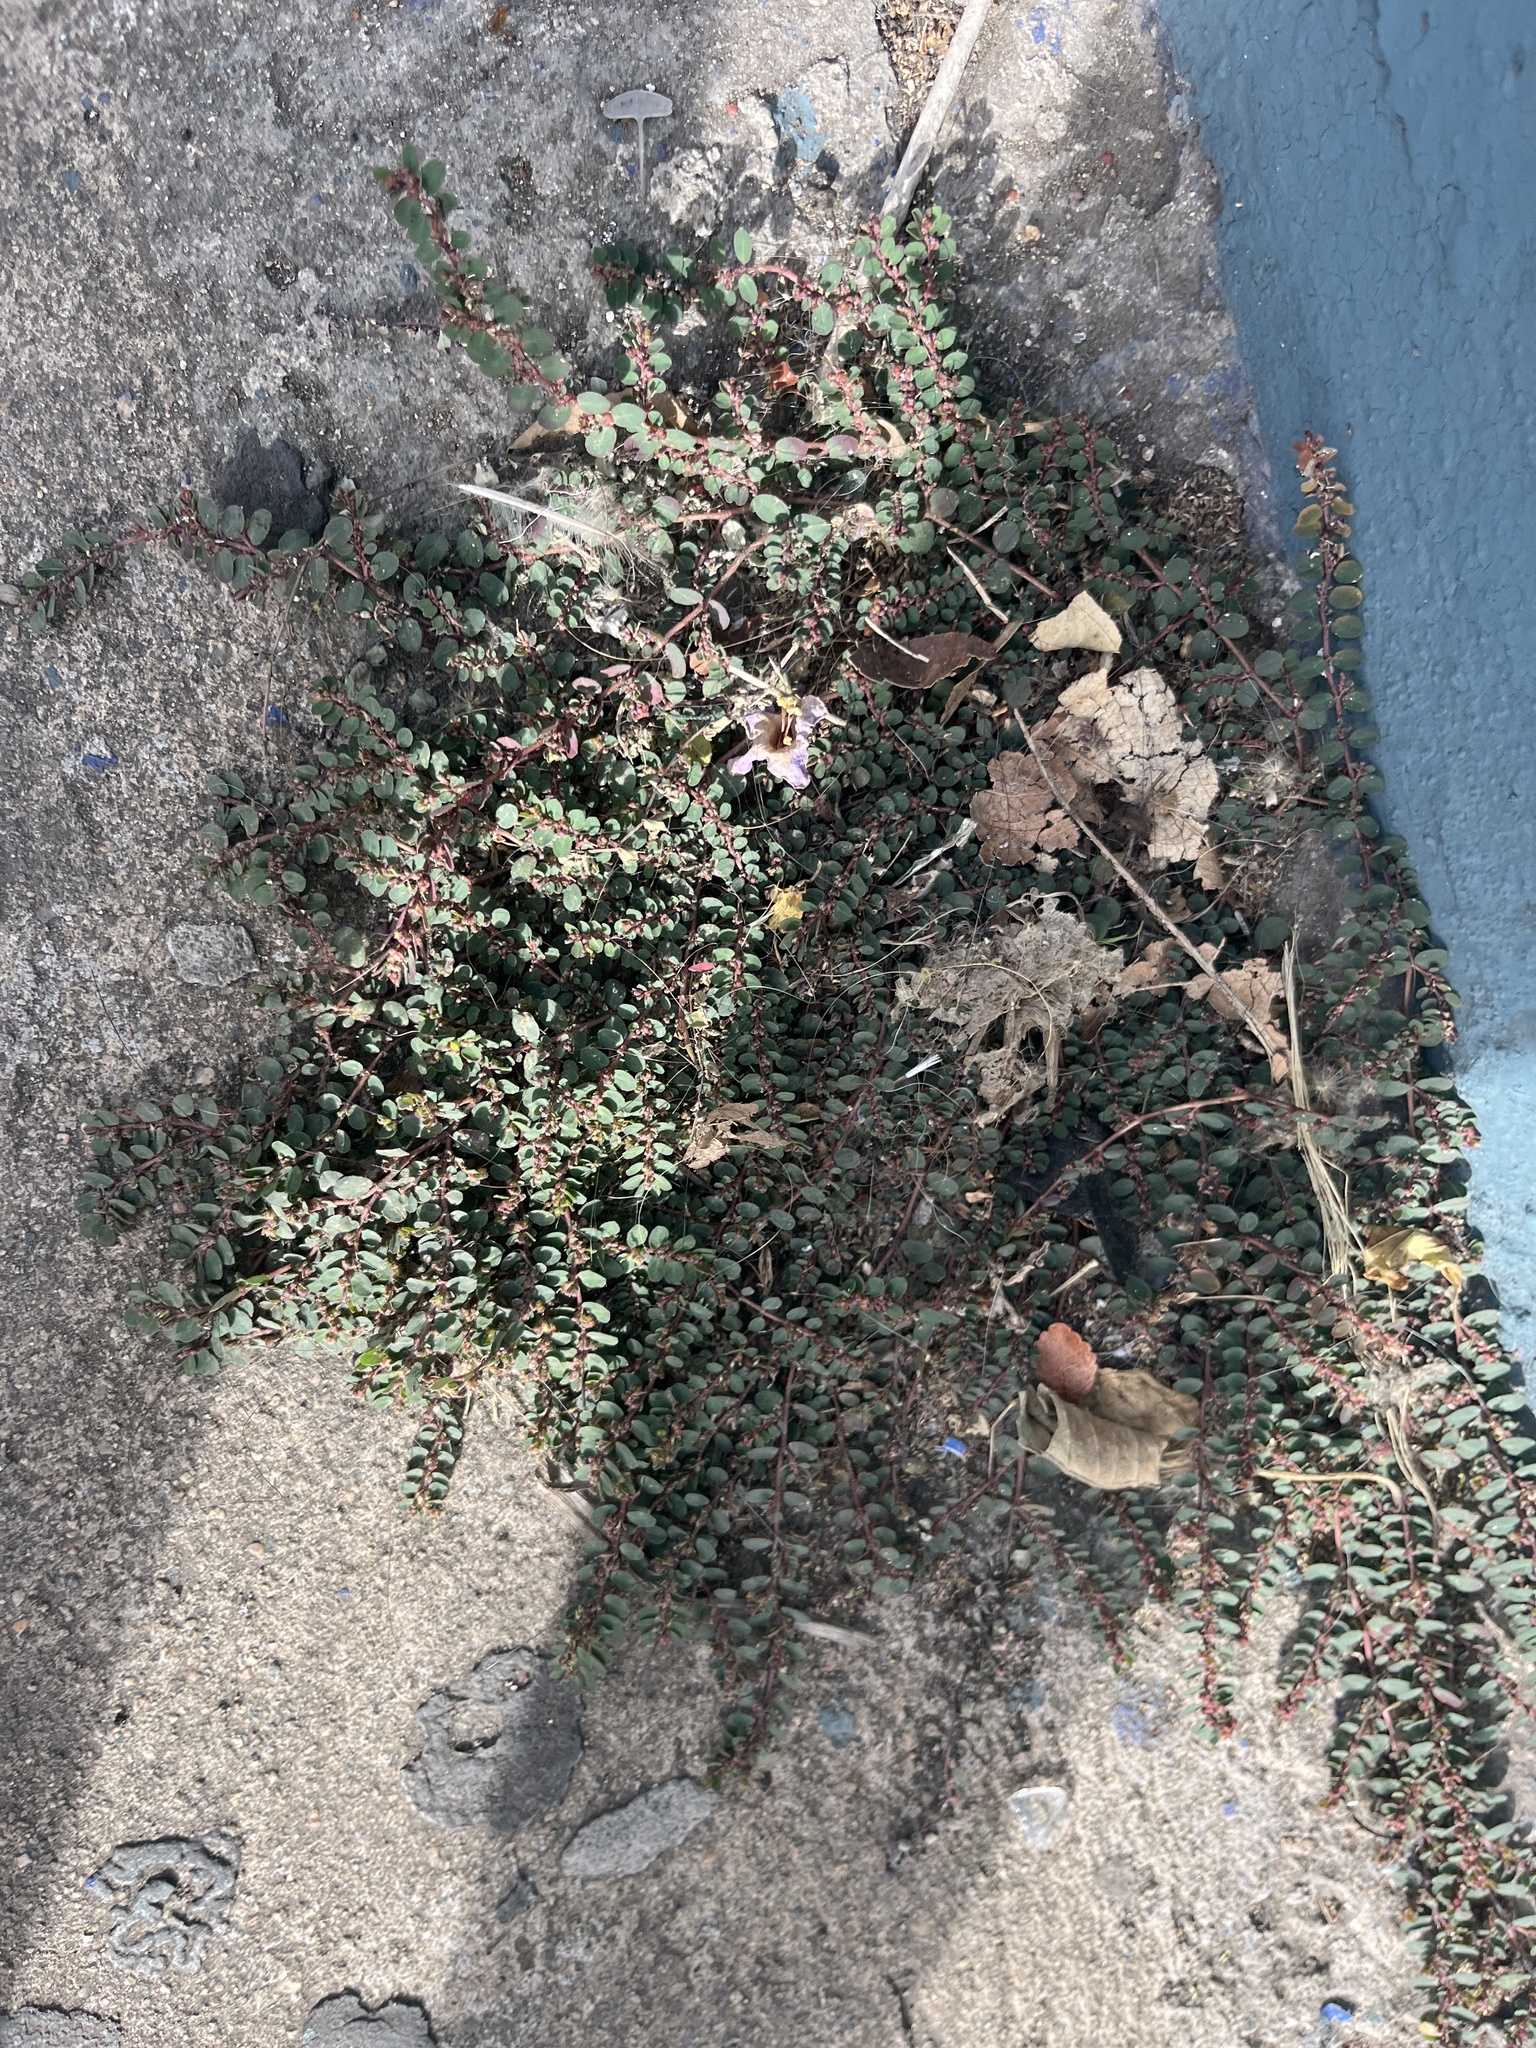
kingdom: Plantae
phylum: Tracheophyta
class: Magnoliopsida
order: Malpighiales
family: Euphorbiaceae
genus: Euphorbia
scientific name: Euphorbia prostrata
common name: Prostrate sandmat
